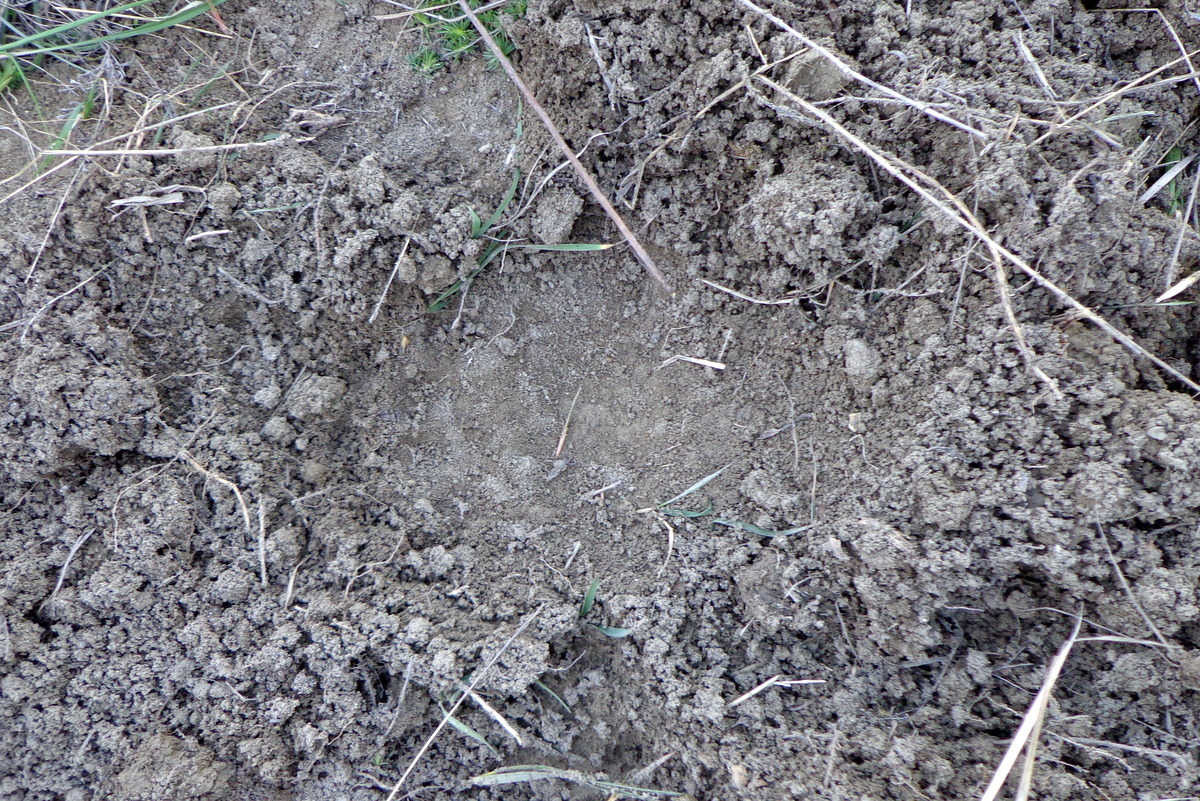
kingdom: Animalia
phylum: Chordata
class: Mammalia
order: Carnivora
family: Ursidae
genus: Ursus
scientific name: Ursus arctos
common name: Brown bear
